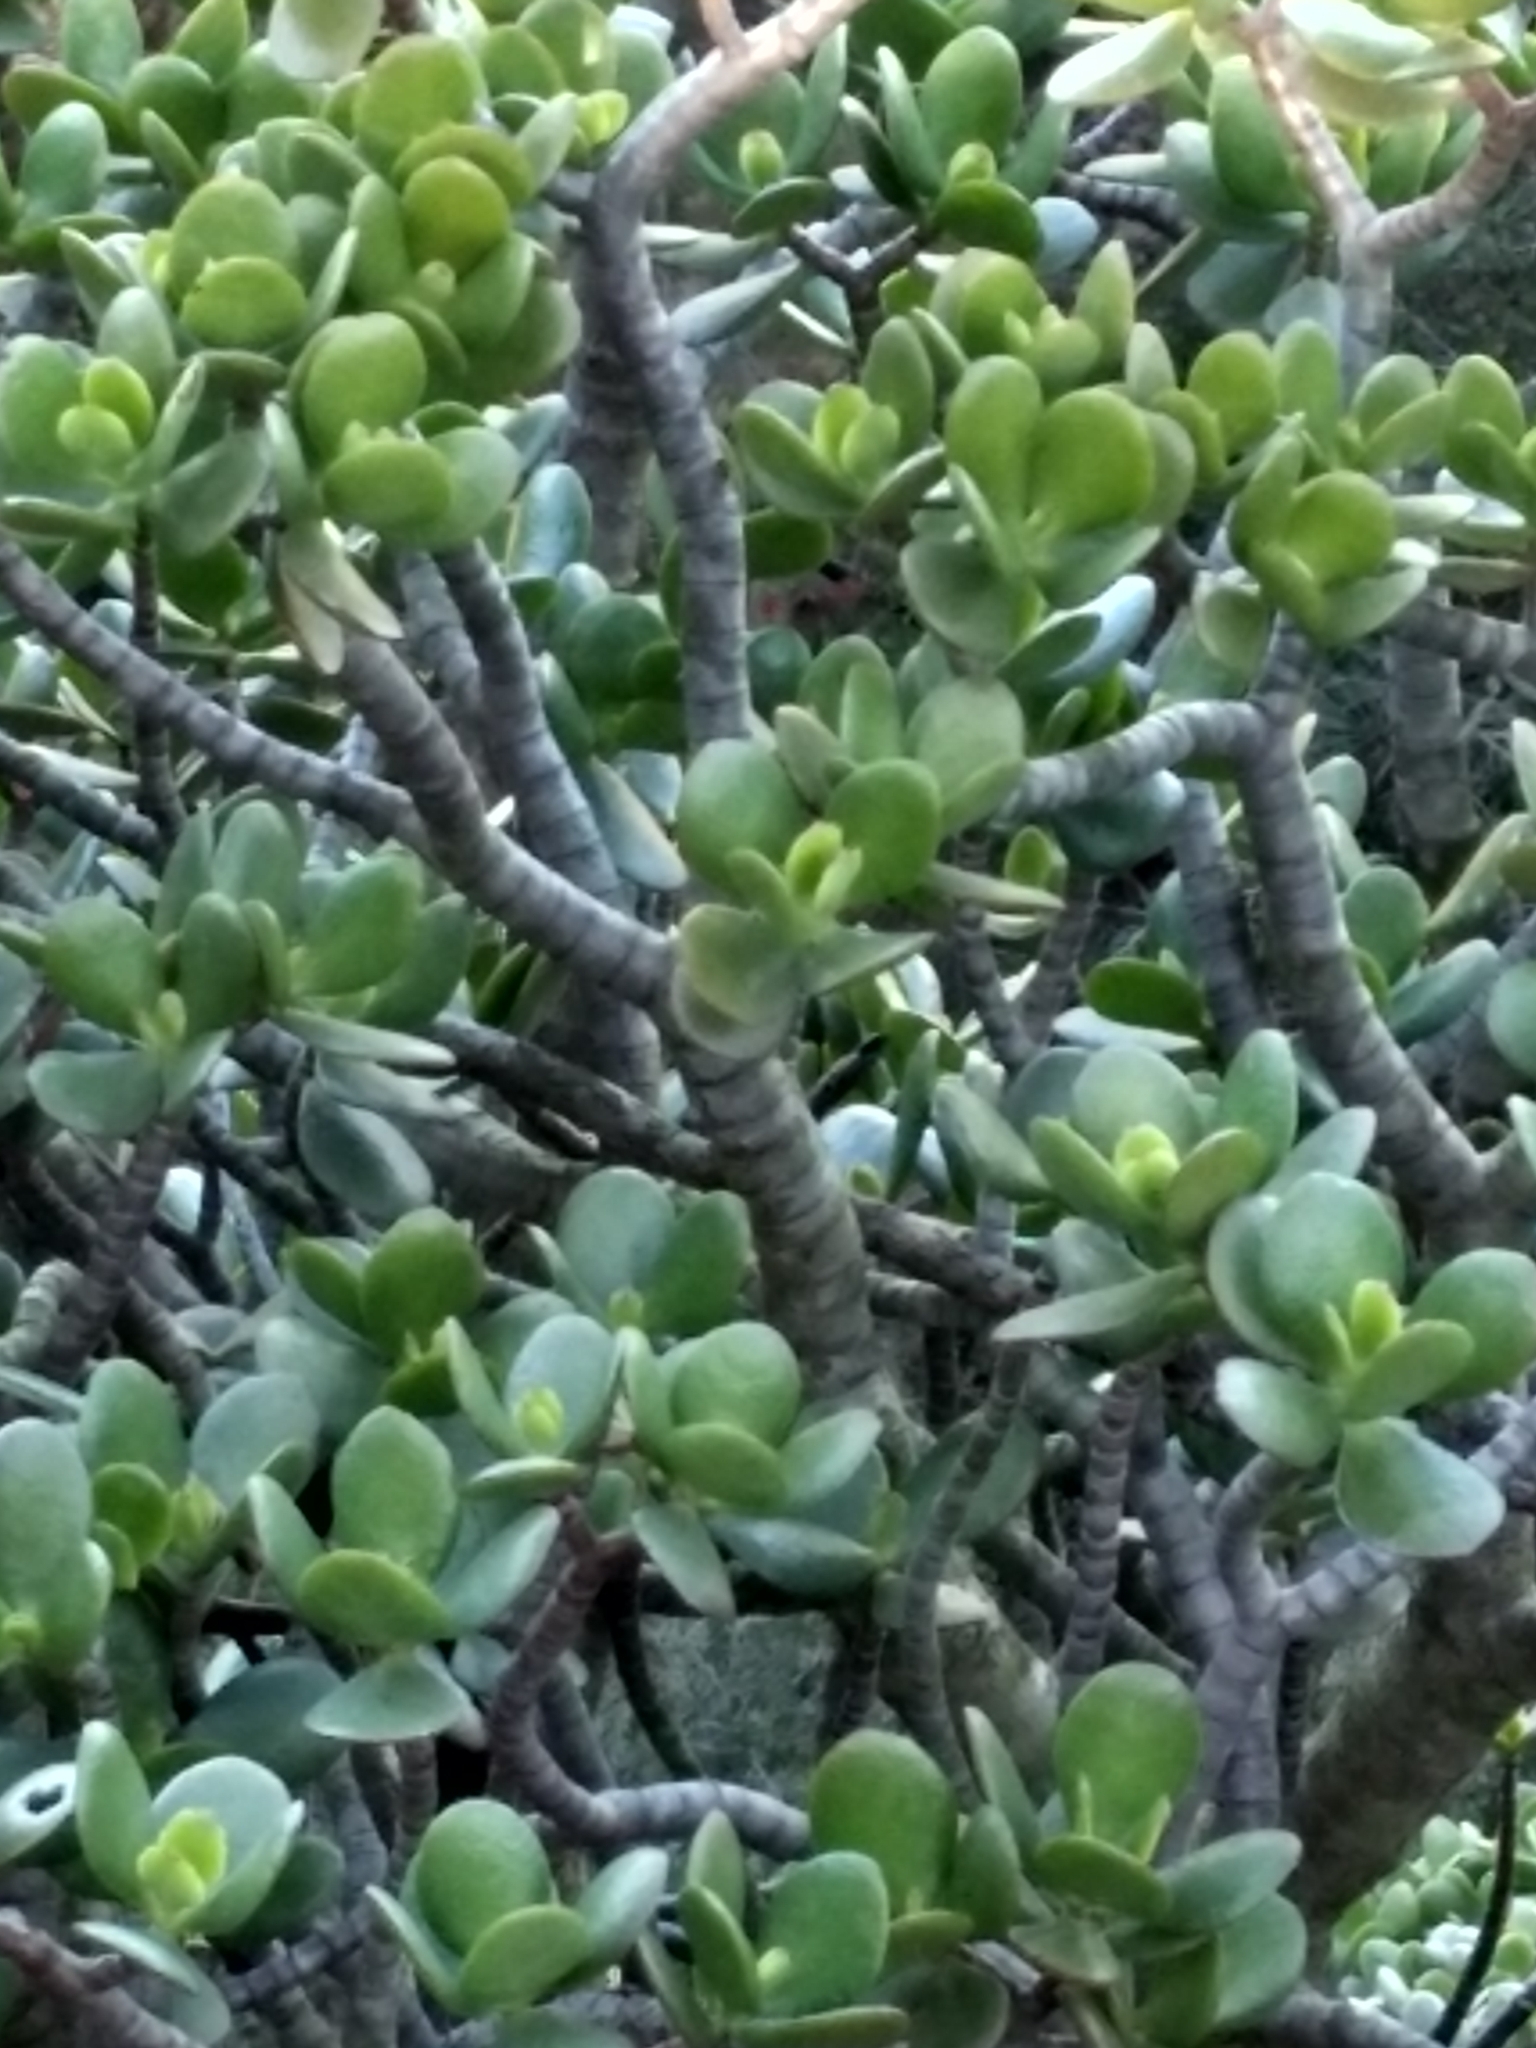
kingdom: Plantae
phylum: Tracheophyta
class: Magnoliopsida
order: Saxifragales
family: Crassulaceae
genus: Crassula
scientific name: Crassula ovata
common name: Jade plant
